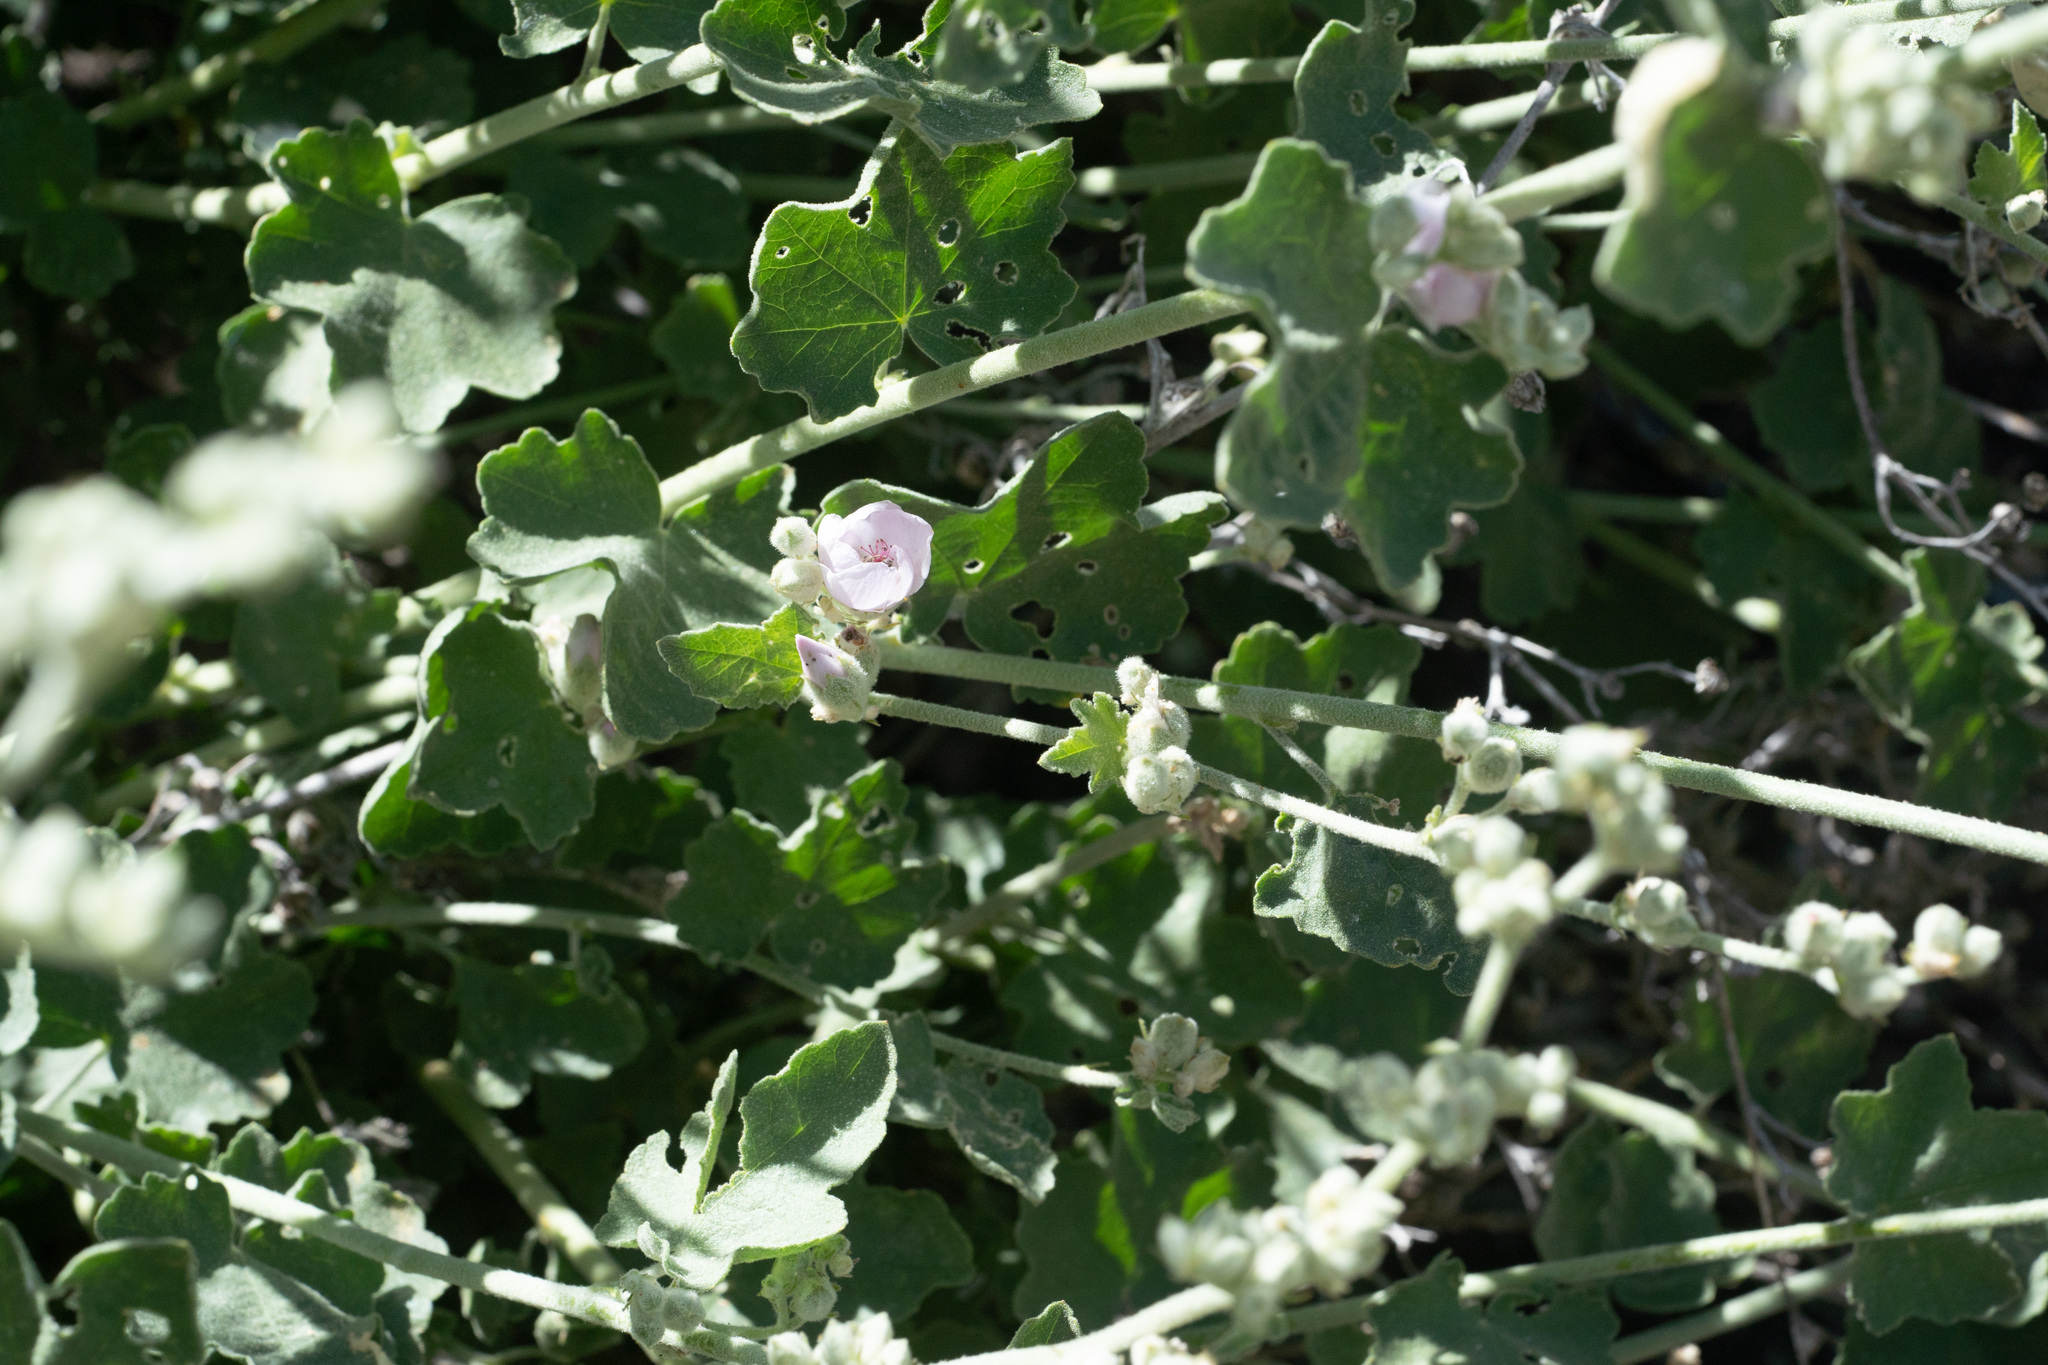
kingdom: Plantae
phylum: Tracheophyta
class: Magnoliopsida
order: Malvales
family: Malvaceae
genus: Malacothamnus
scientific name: Malacothamnus fremontii
